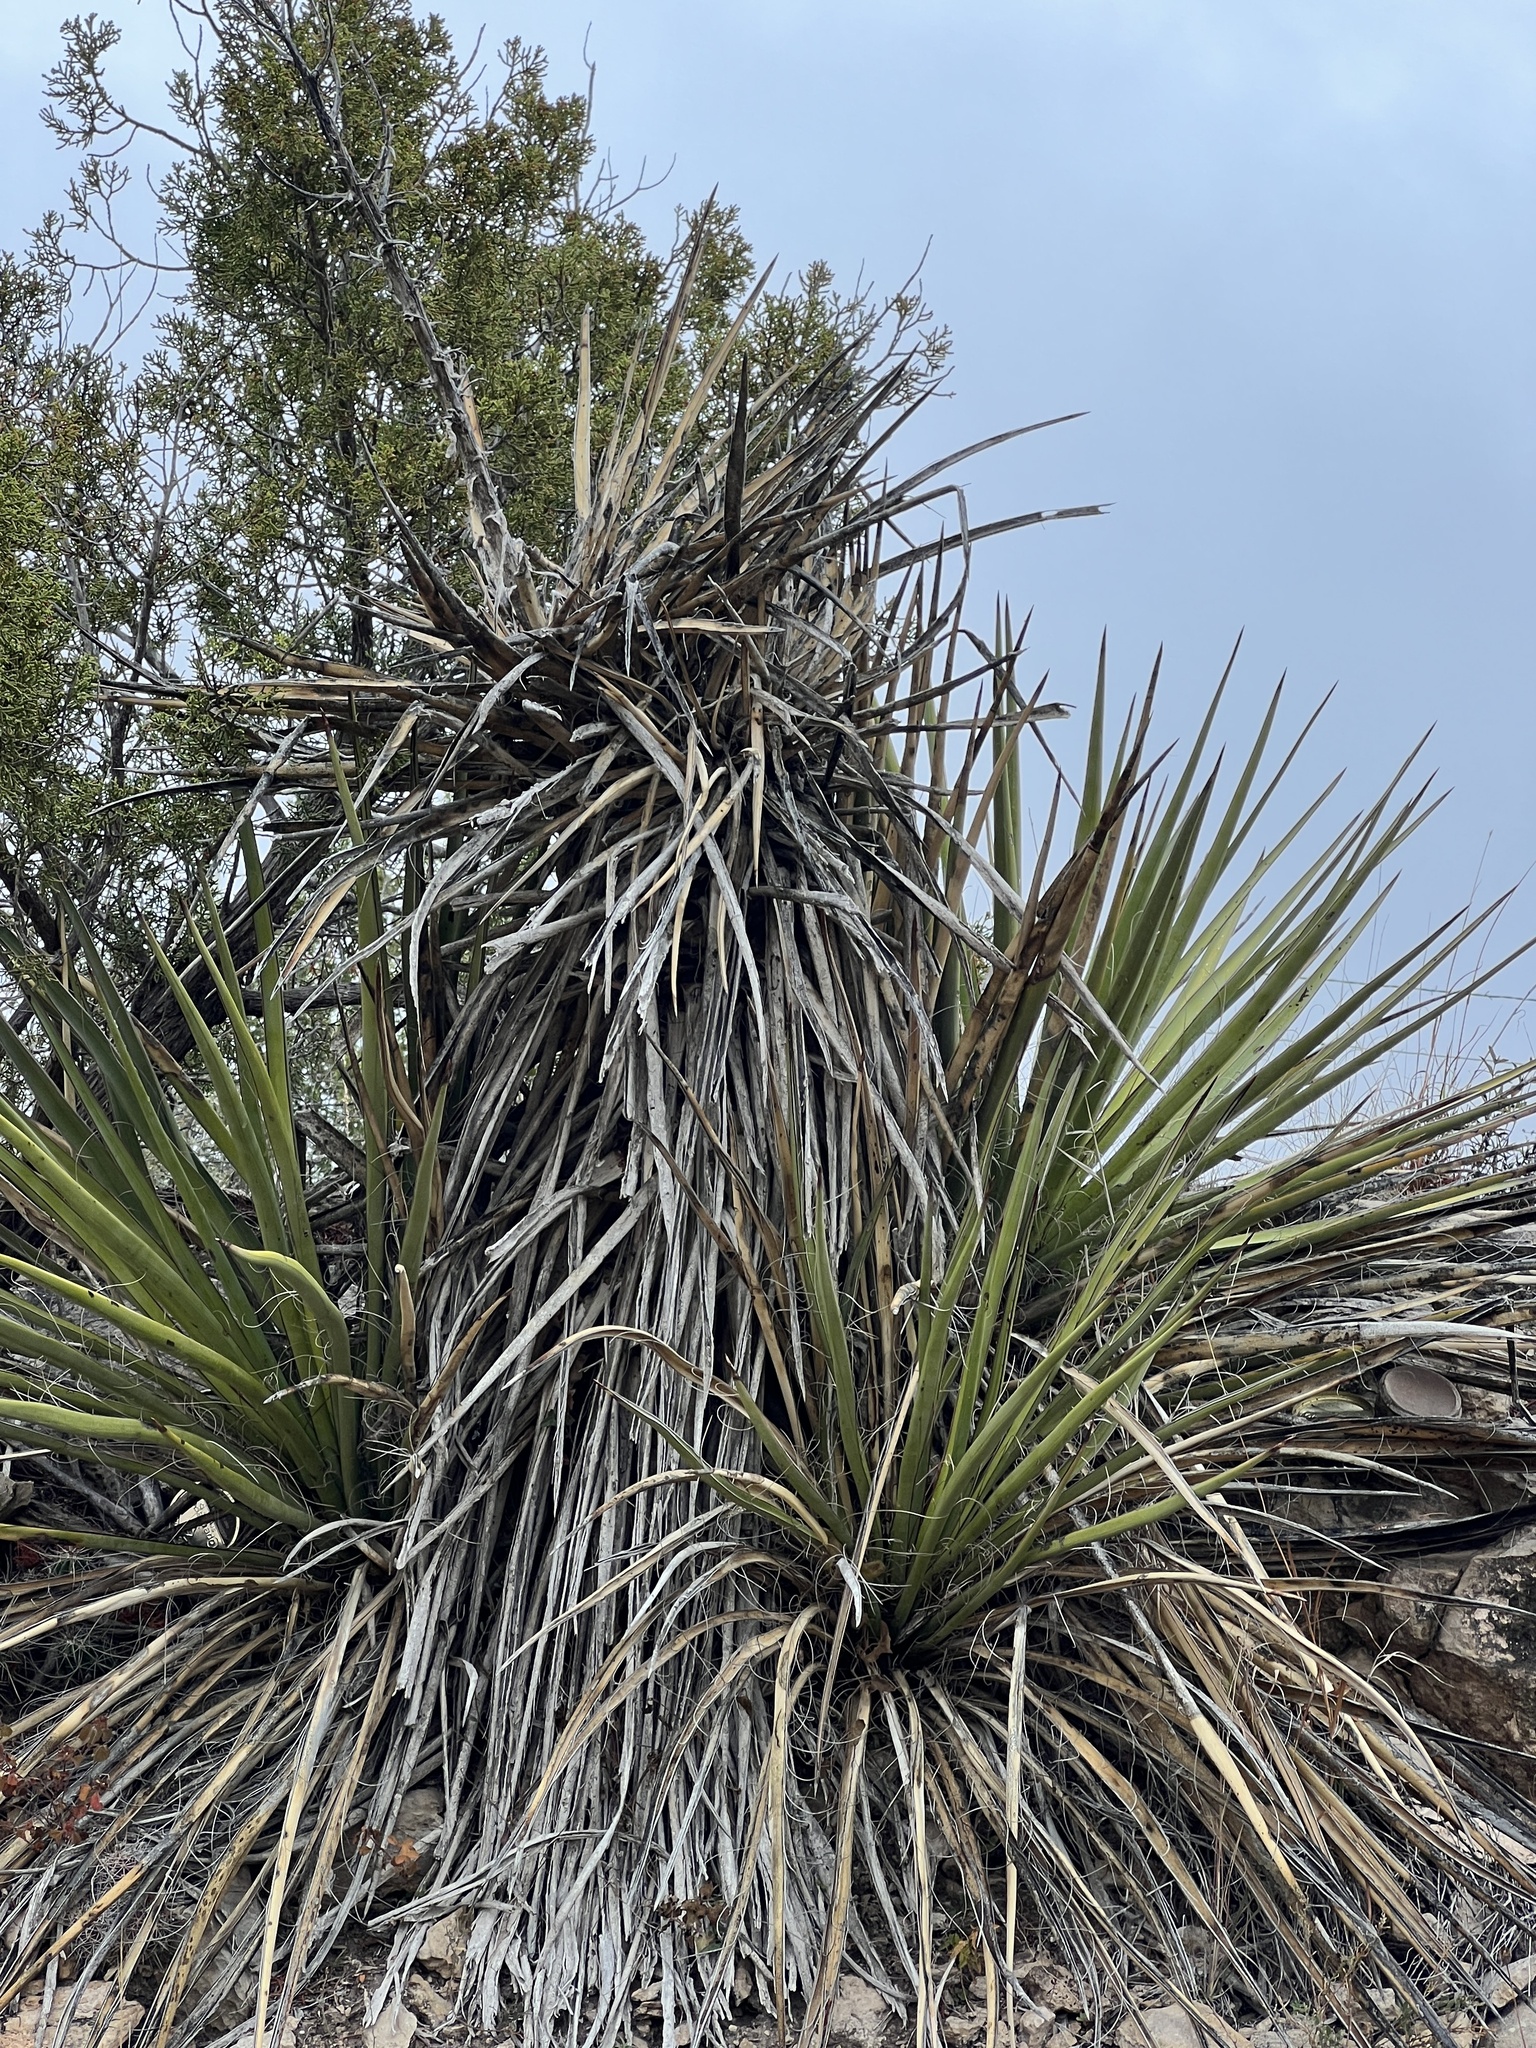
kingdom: Plantae
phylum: Tracheophyta
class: Liliopsida
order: Asparagales
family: Asparagaceae
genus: Yucca
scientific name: Yucca treculiana
